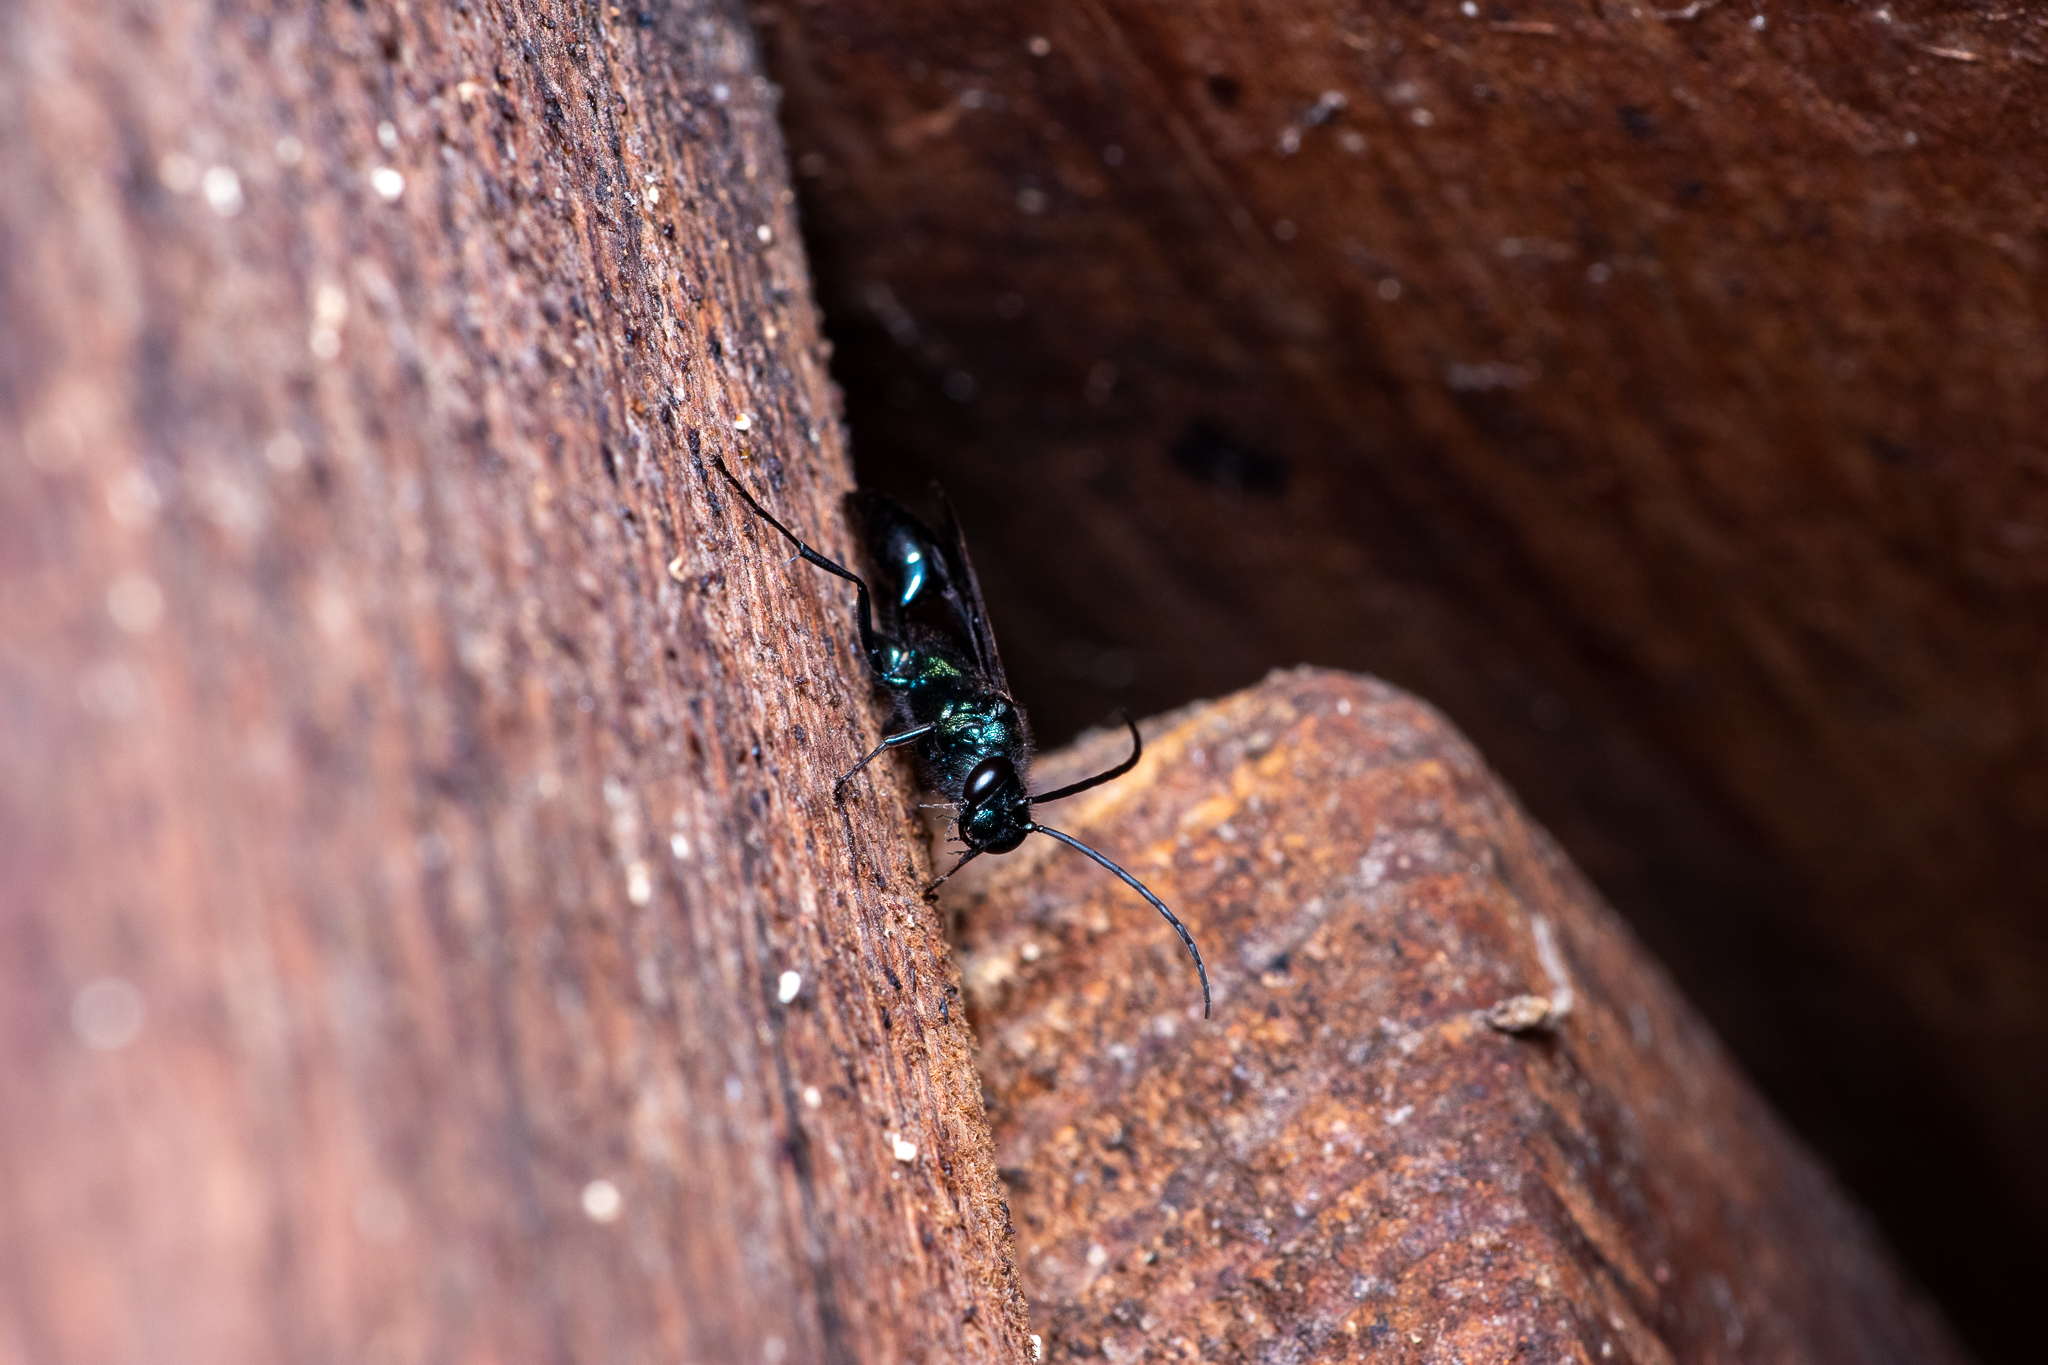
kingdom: Animalia
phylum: Arthropoda
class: Insecta
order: Hymenoptera
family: Sphecidae
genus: Chalybion
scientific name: Chalybion californicum
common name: Mud dauber
